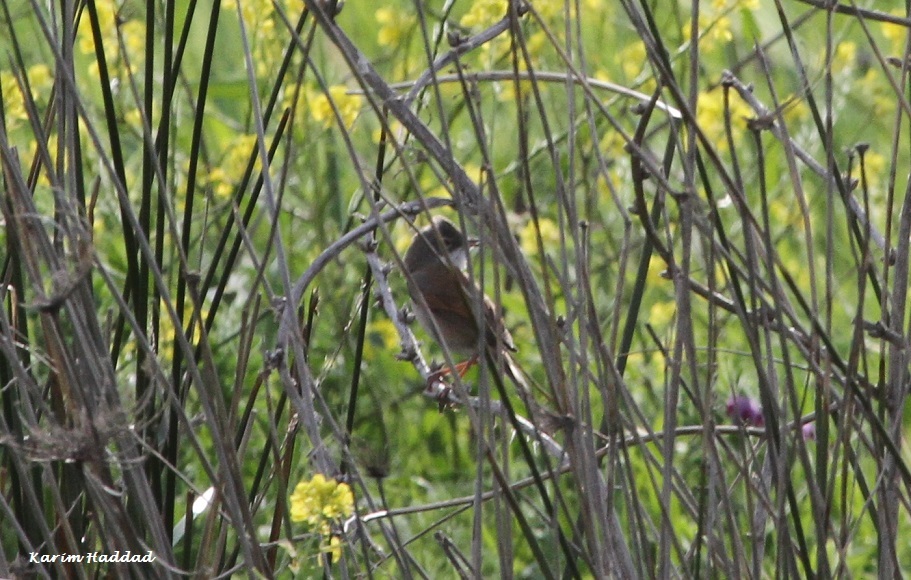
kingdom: Animalia
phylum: Chordata
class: Aves
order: Passeriformes
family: Sylviidae
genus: Sylvia
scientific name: Sylvia conspicillata
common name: Spectacled warbler
